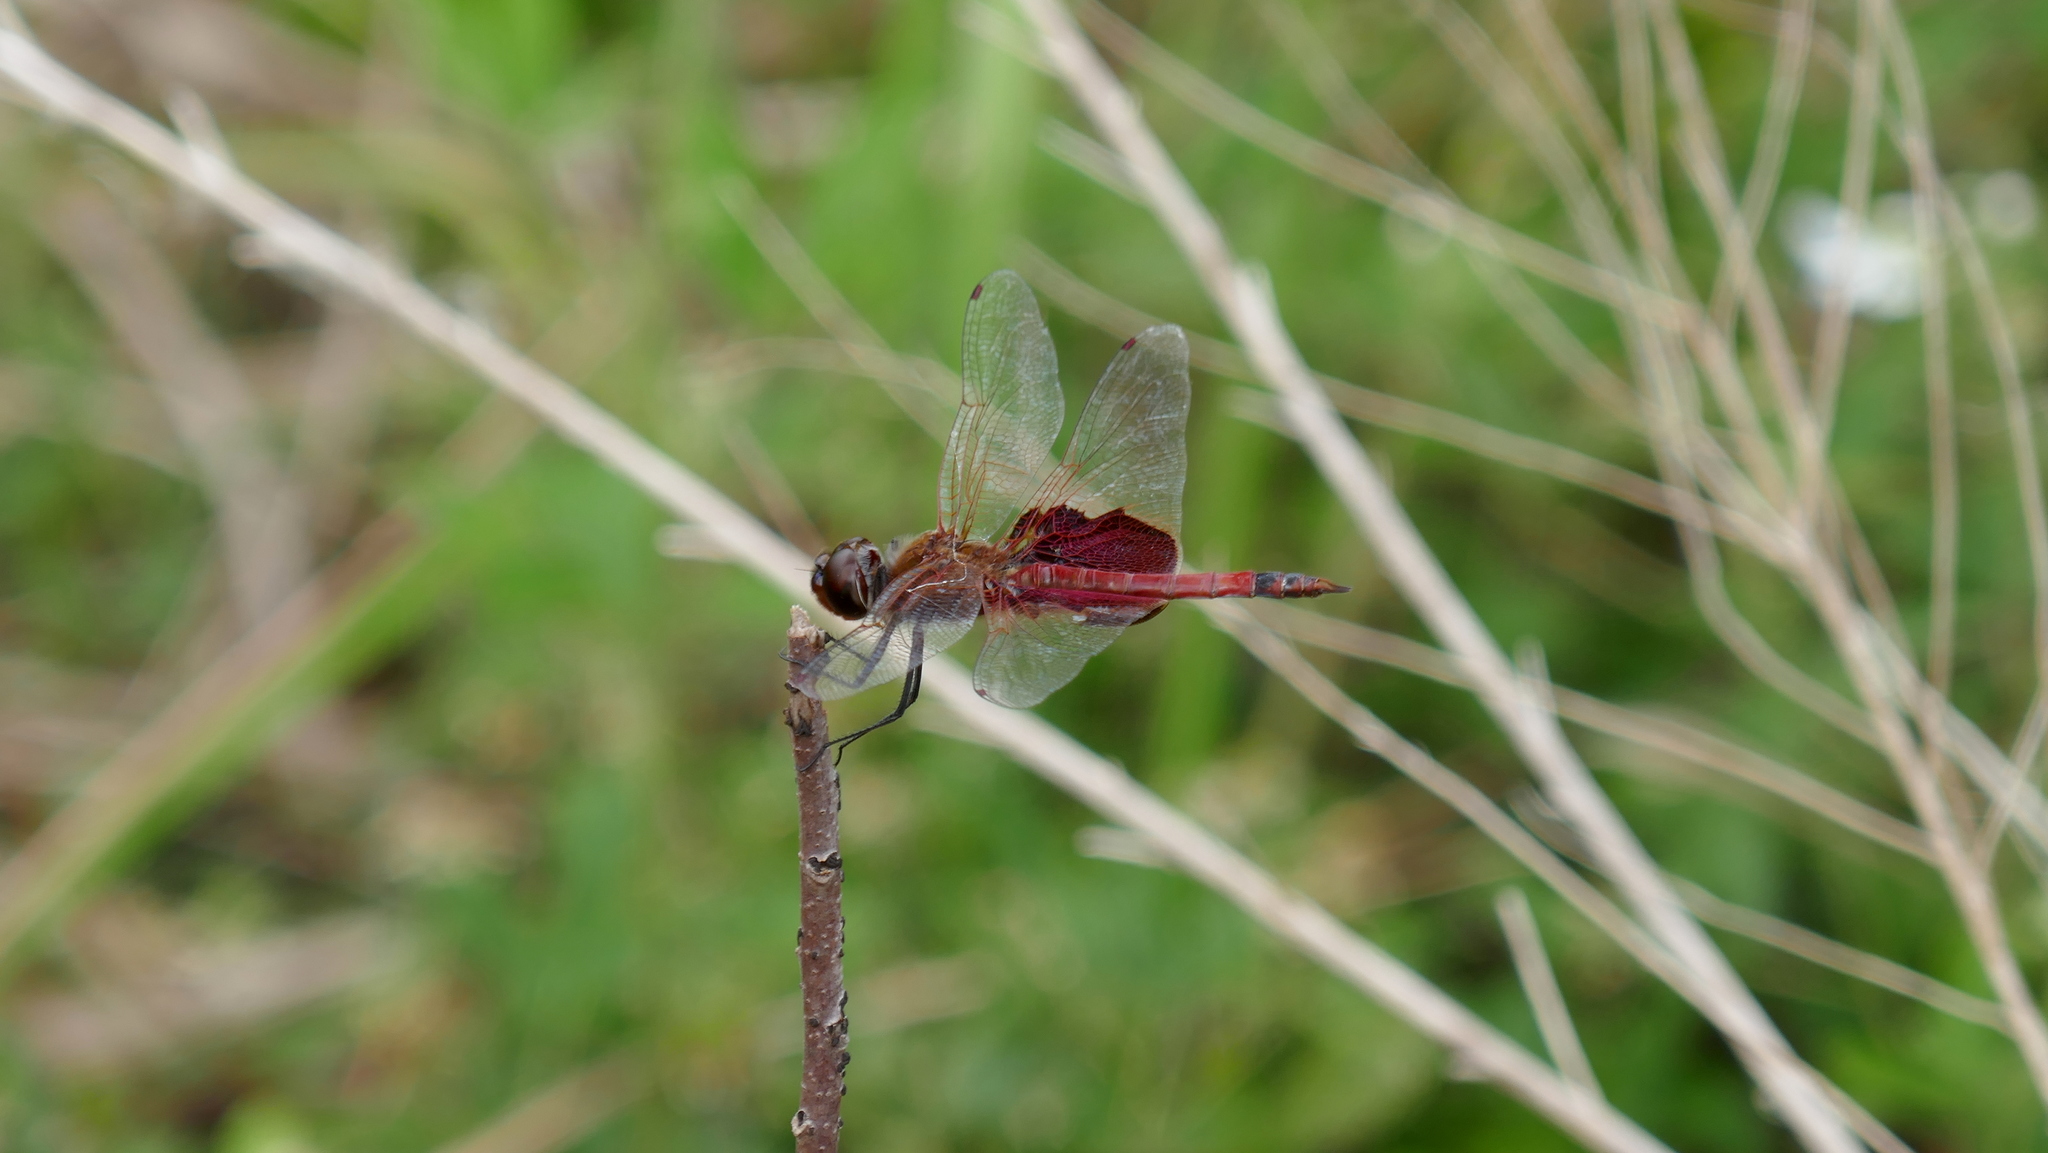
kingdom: Animalia
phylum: Arthropoda
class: Insecta
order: Odonata
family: Libellulidae
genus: Tramea
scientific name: Tramea carolina
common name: Carolina saddlebags
